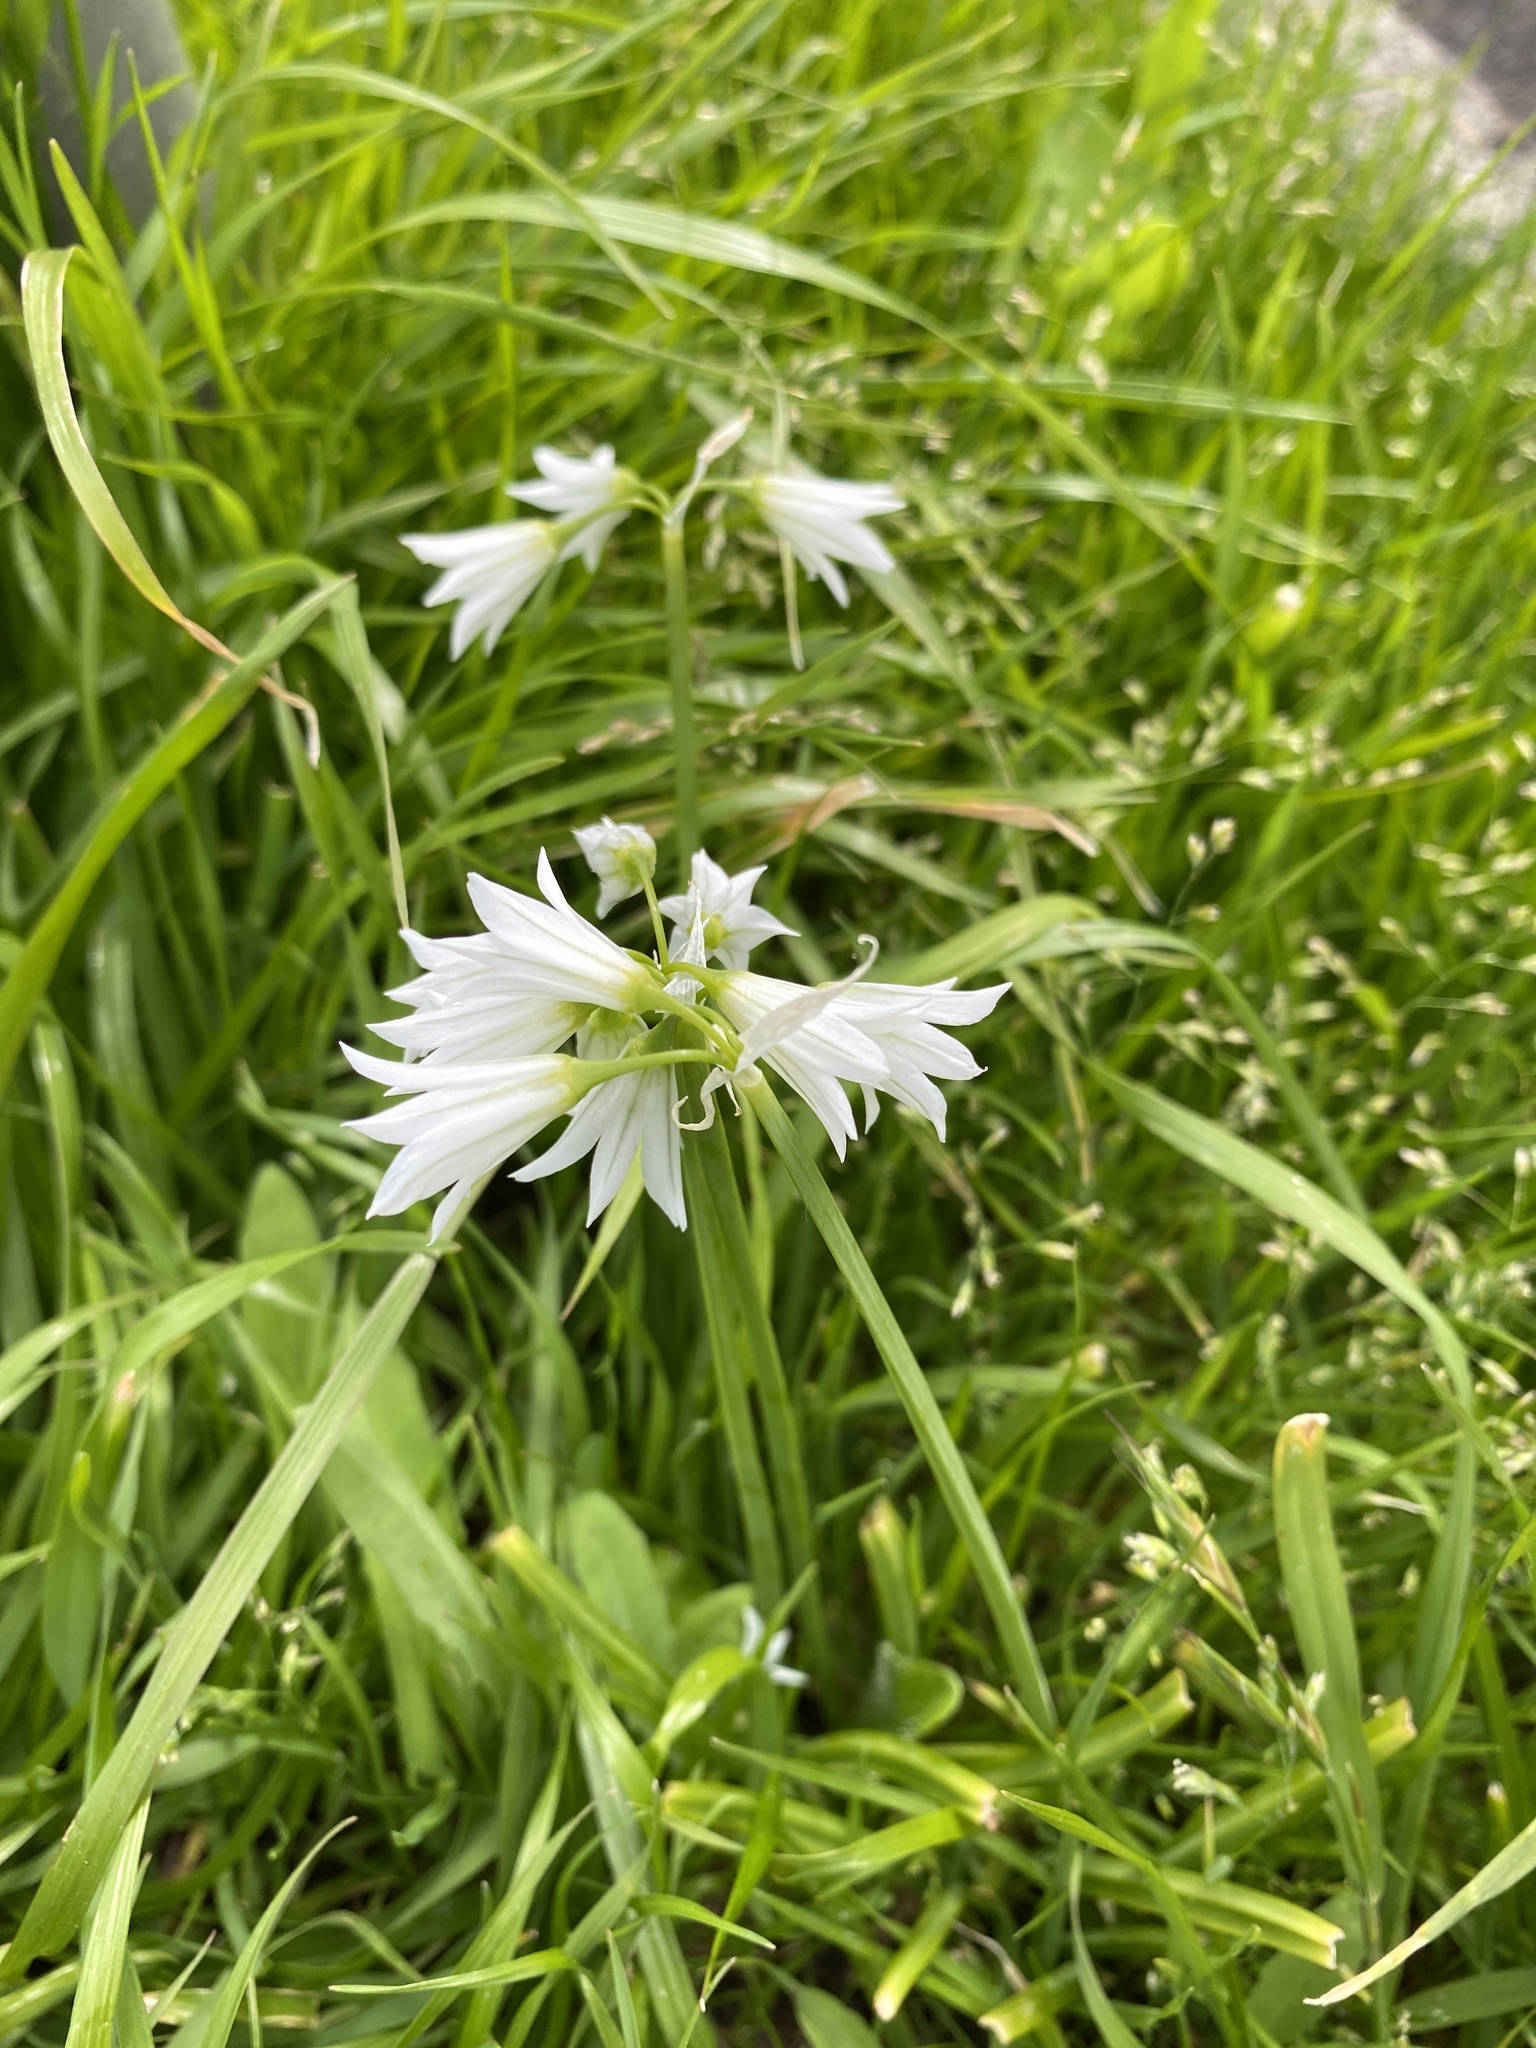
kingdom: Plantae
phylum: Tracheophyta
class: Liliopsida
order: Asparagales
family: Amaryllidaceae
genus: Allium
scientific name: Allium triquetrum
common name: Three-cornered garlic
